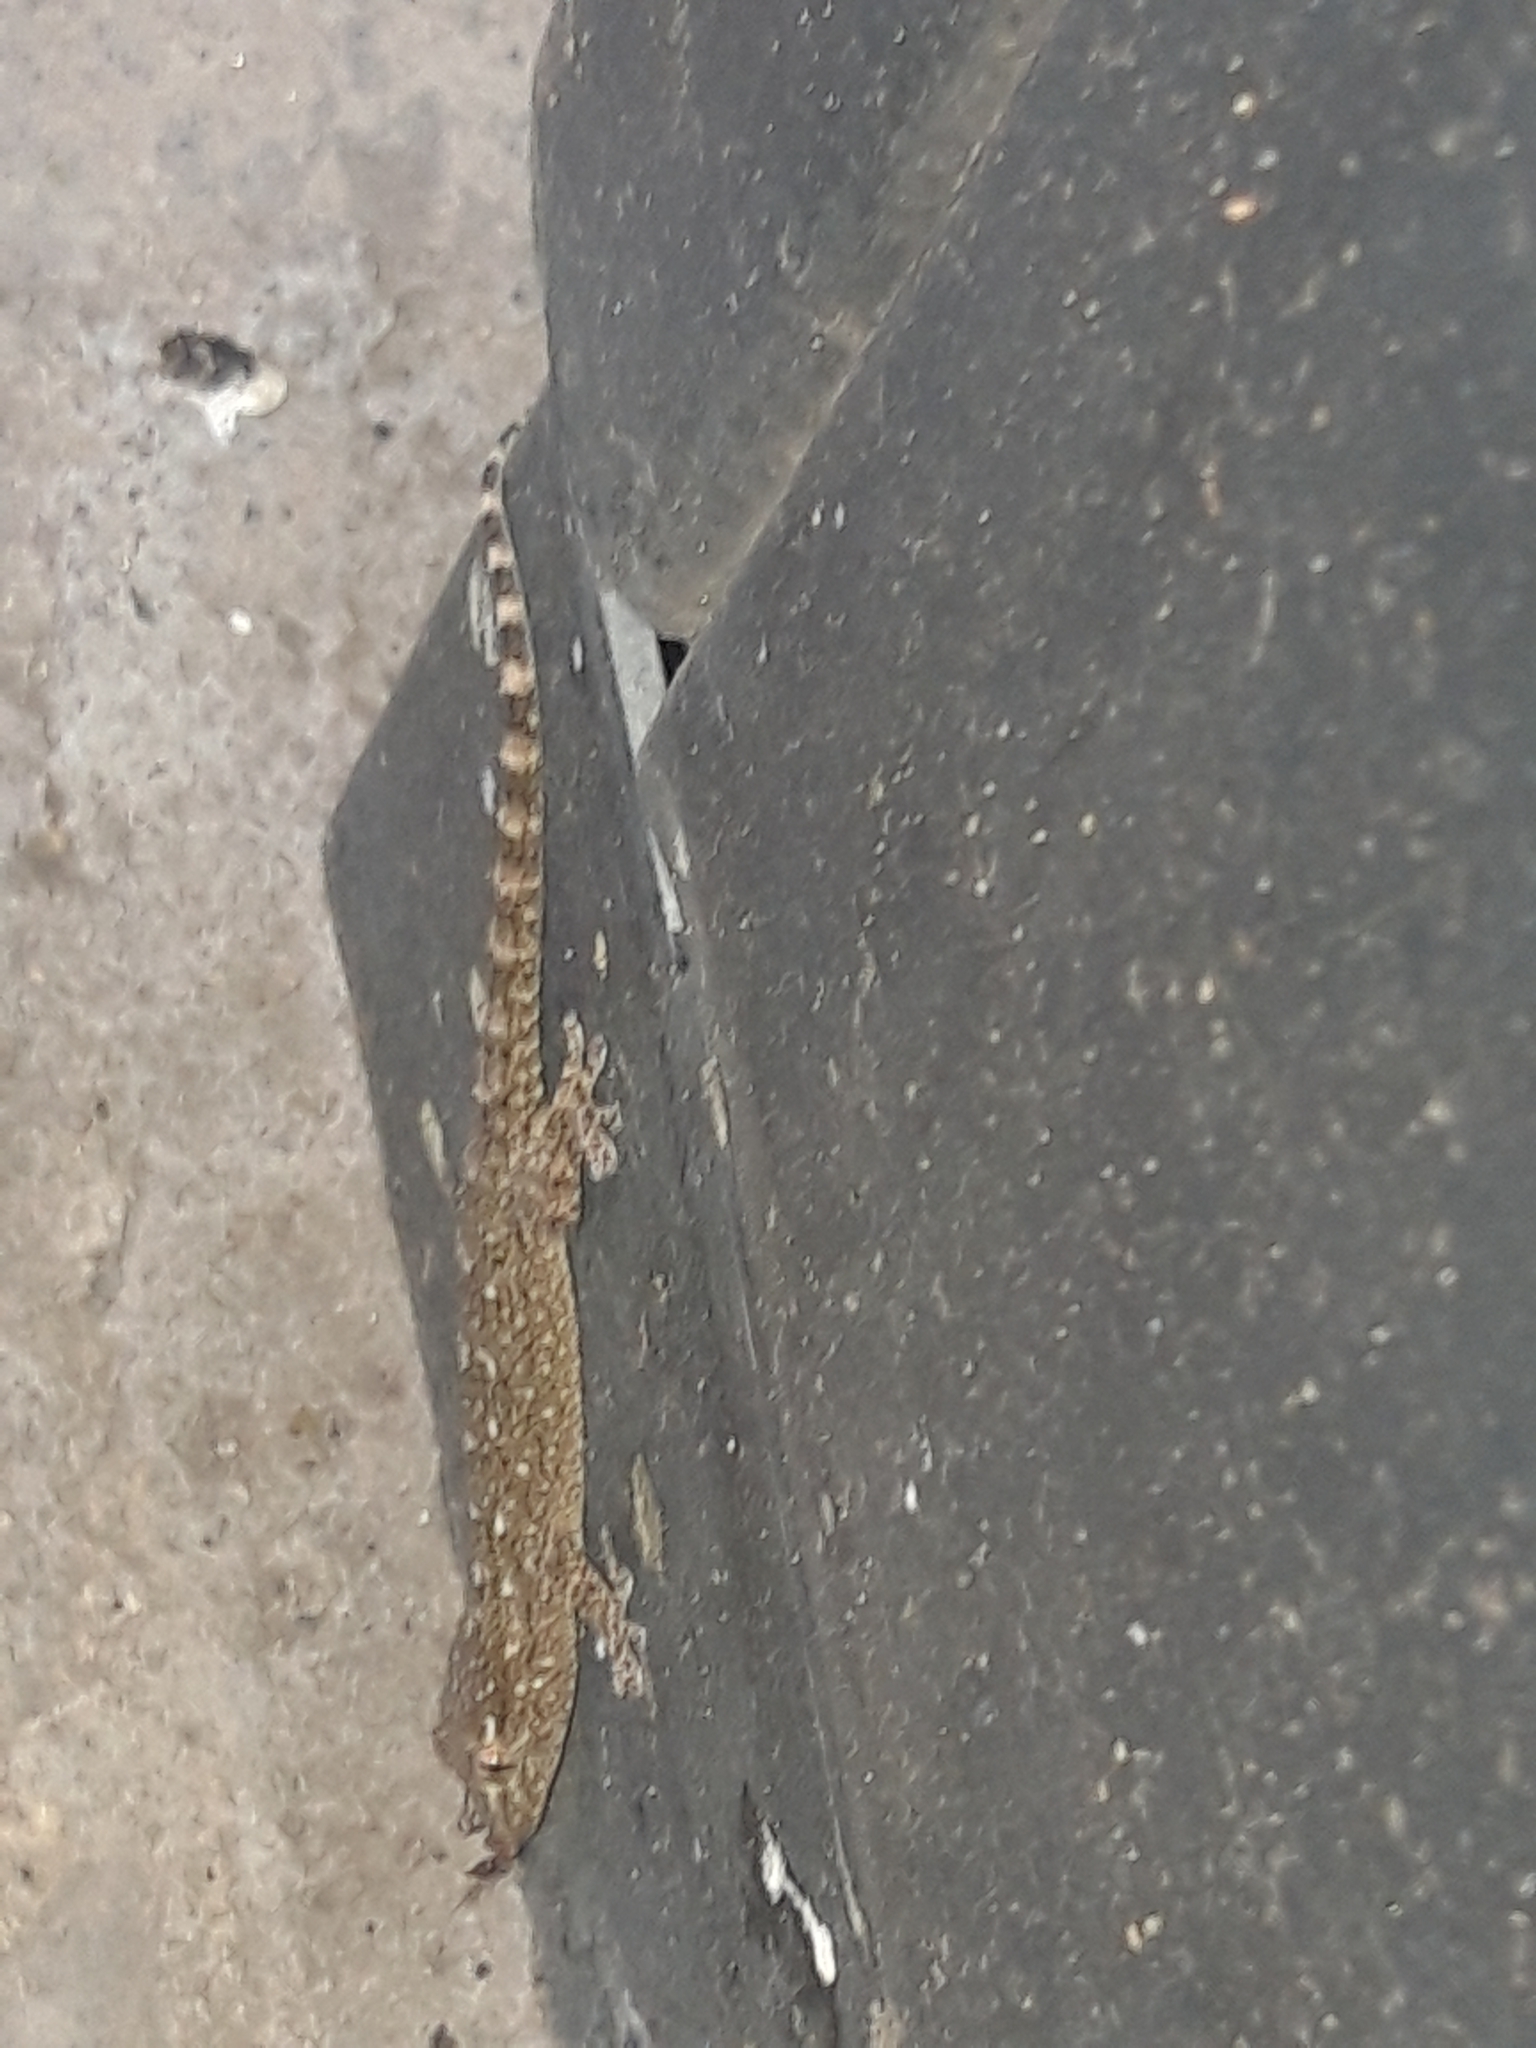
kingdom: Animalia
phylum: Chordata
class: Squamata
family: Phyllodactylidae
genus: Tarentola
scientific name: Tarentola mauritanica
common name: Moorish gecko
